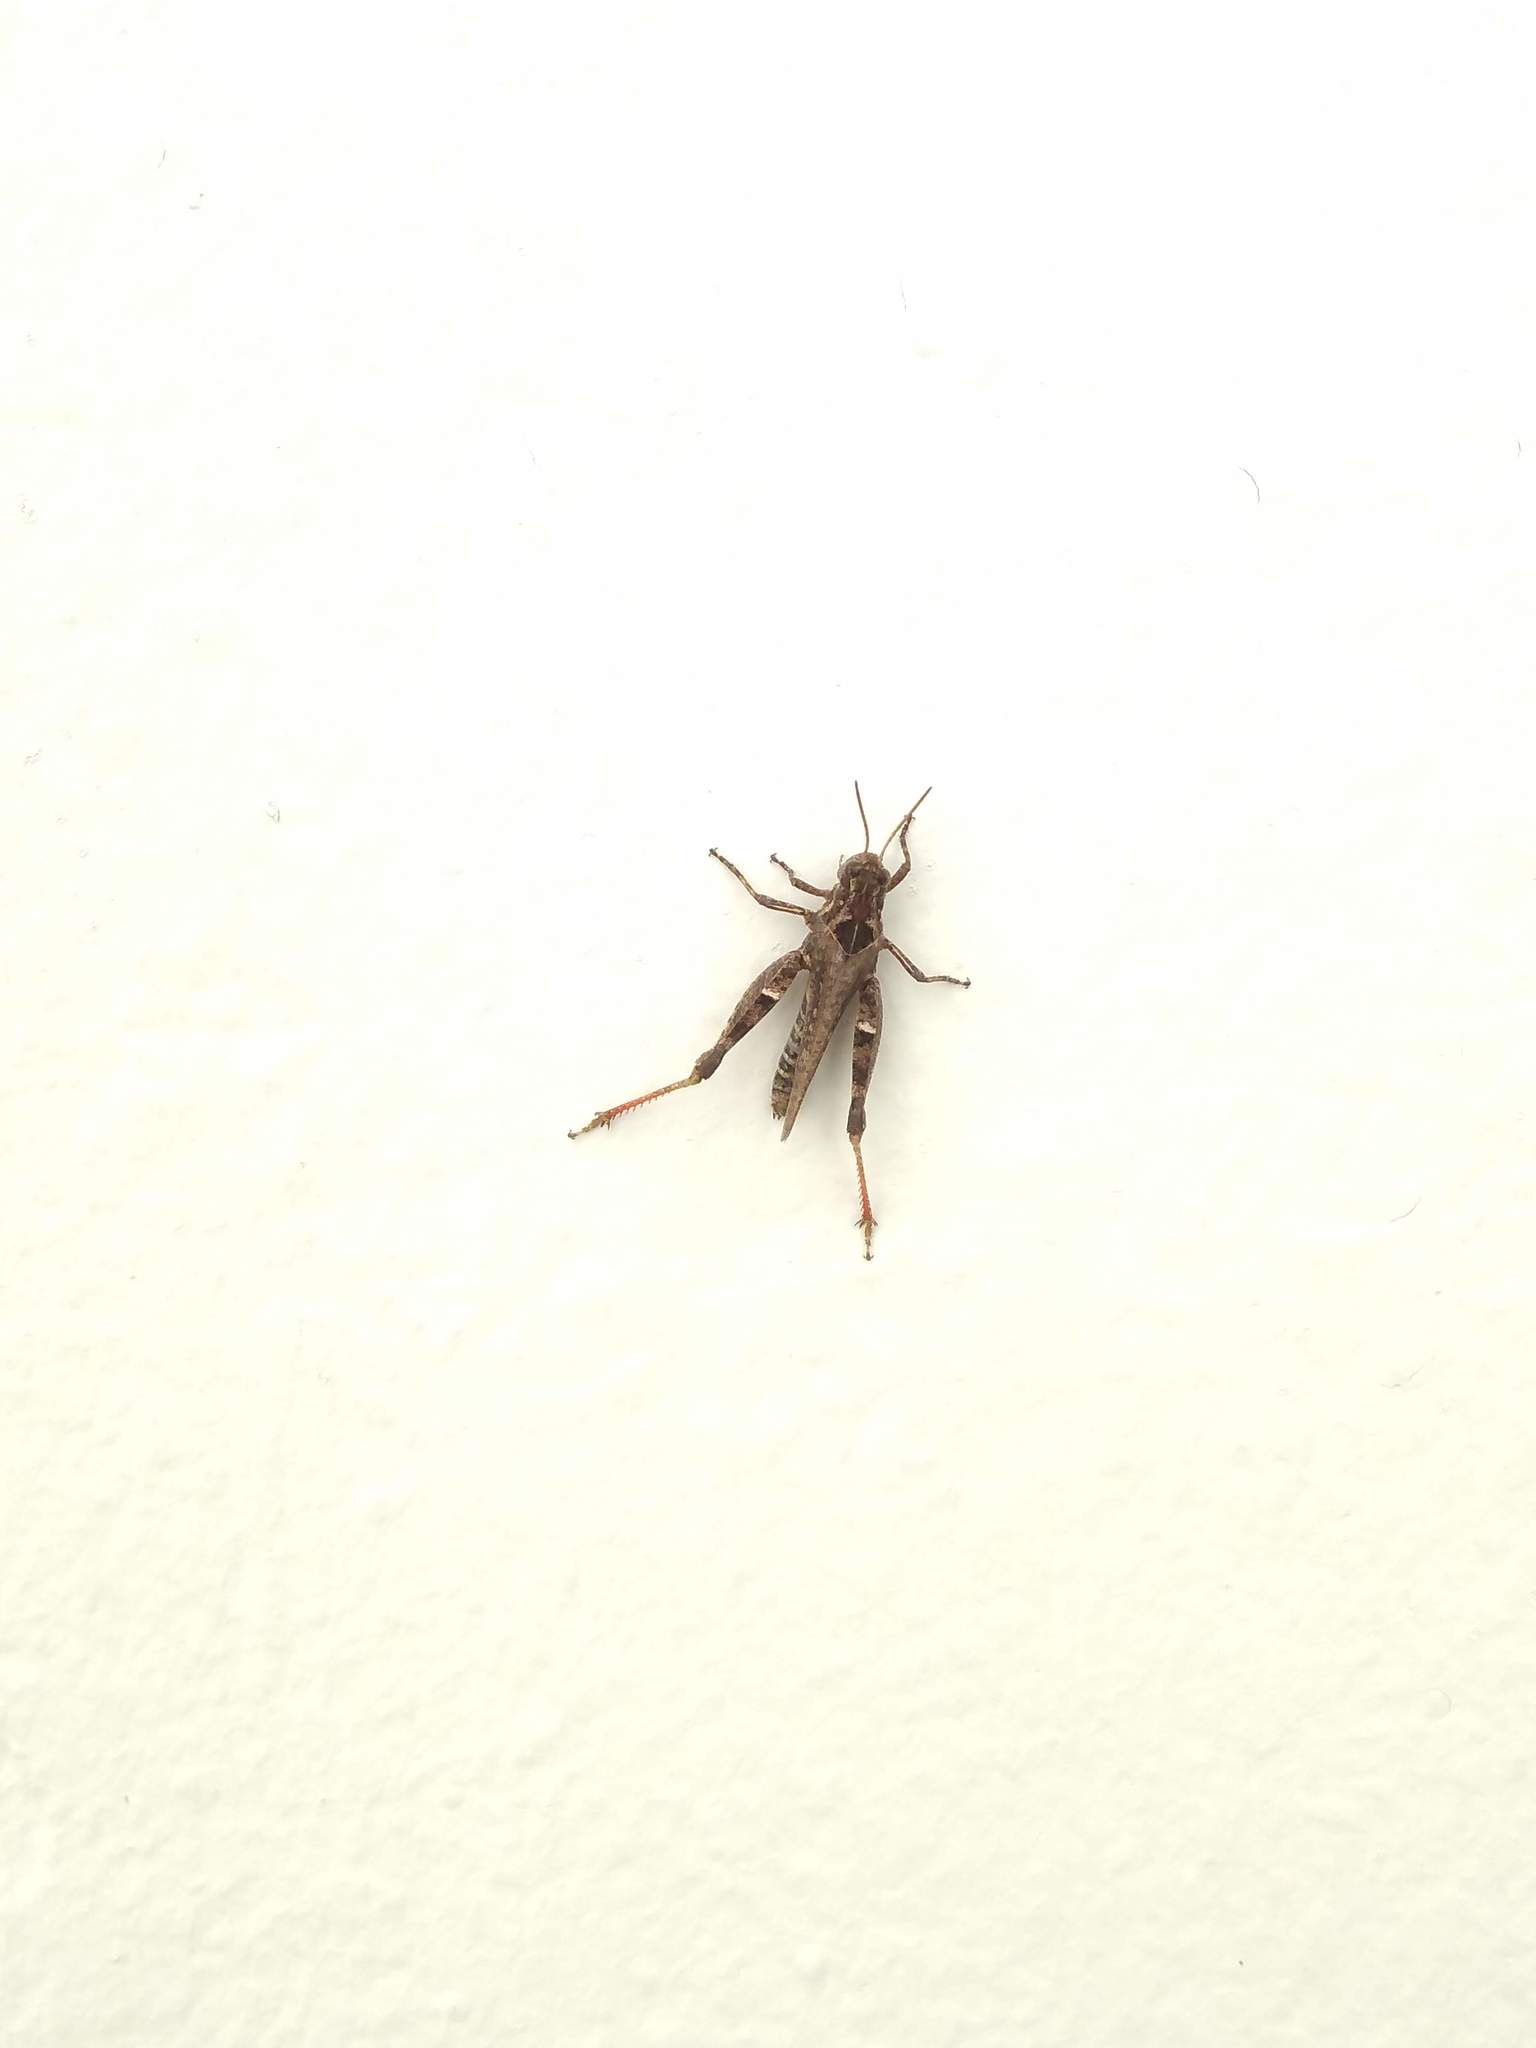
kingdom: Animalia
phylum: Arthropoda
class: Insecta
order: Orthoptera
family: Acrididae
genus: Baeacris
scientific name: Baeacris
